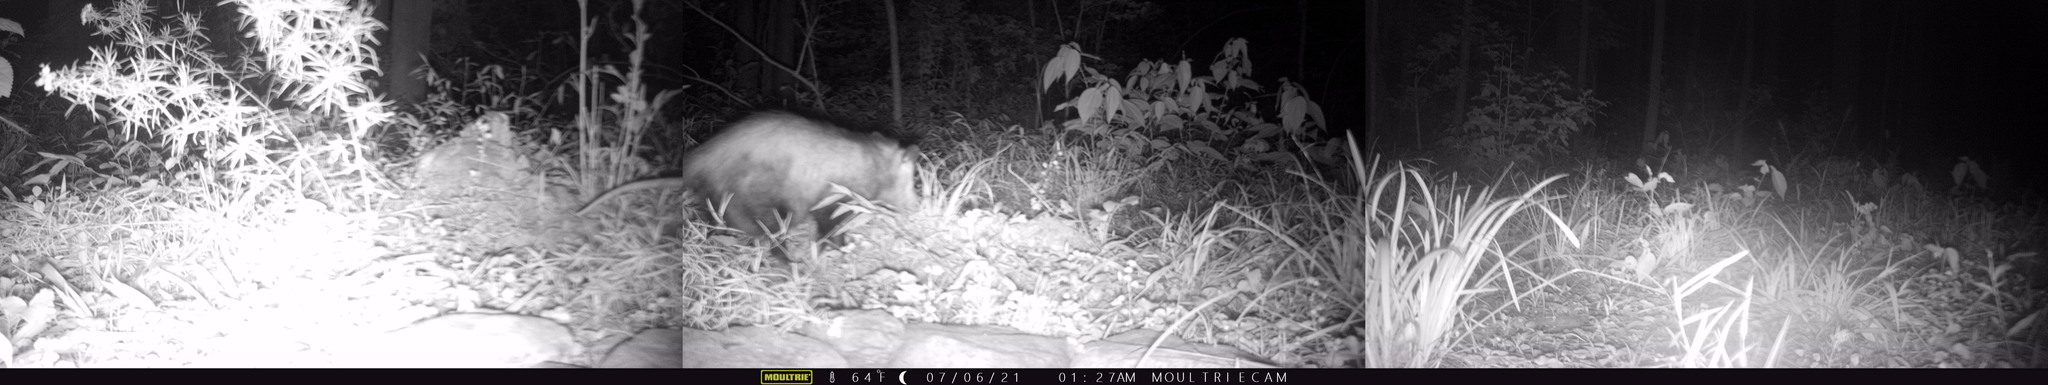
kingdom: Animalia
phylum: Chordata
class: Mammalia
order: Didelphimorphia
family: Didelphidae
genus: Didelphis
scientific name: Didelphis virginiana
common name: Virginia opossum
